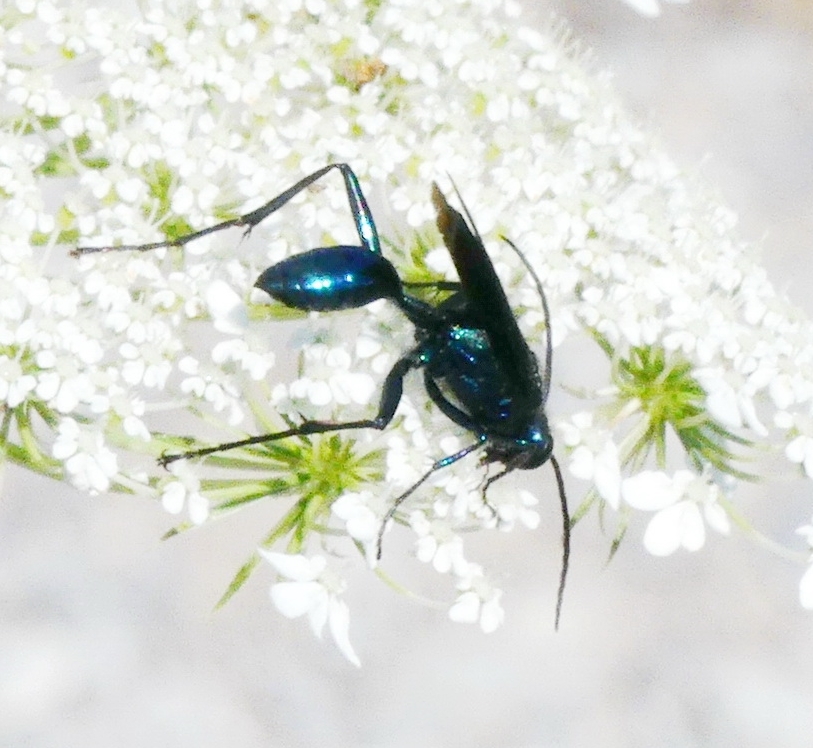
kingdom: Animalia
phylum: Arthropoda
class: Insecta
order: Hymenoptera
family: Sphecidae
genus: Chalybion
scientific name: Chalybion californicum
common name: Mud dauber
